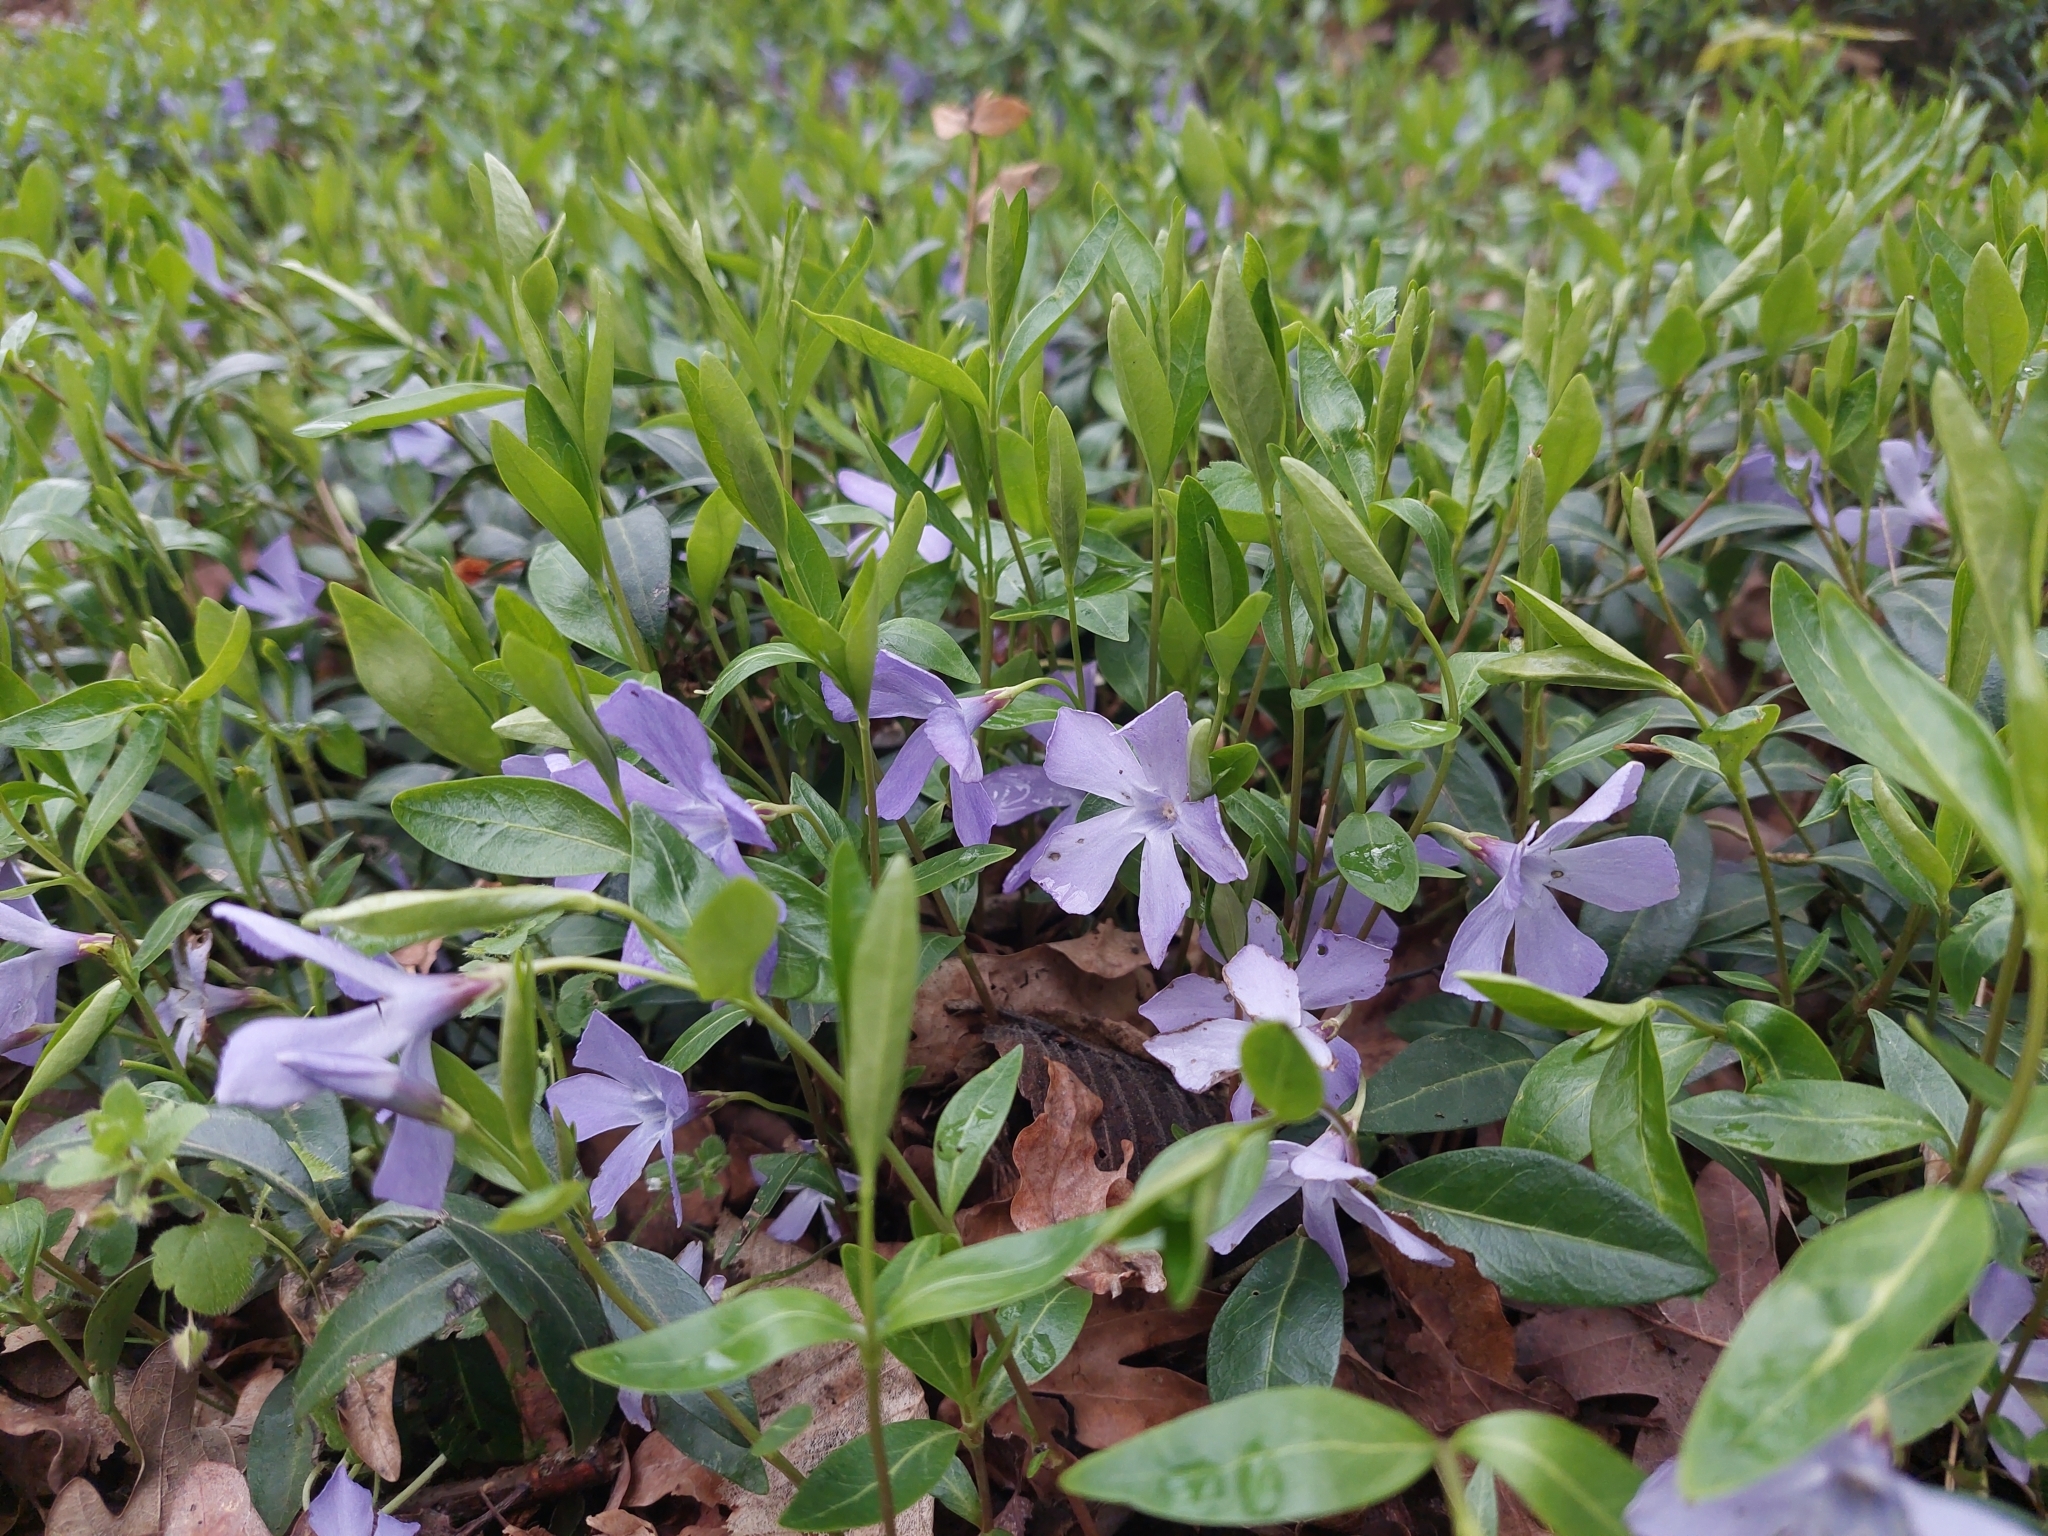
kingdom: Plantae
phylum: Tracheophyta
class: Magnoliopsida
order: Gentianales
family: Apocynaceae
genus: Vinca
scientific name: Vinca minor
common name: Lesser periwinkle
